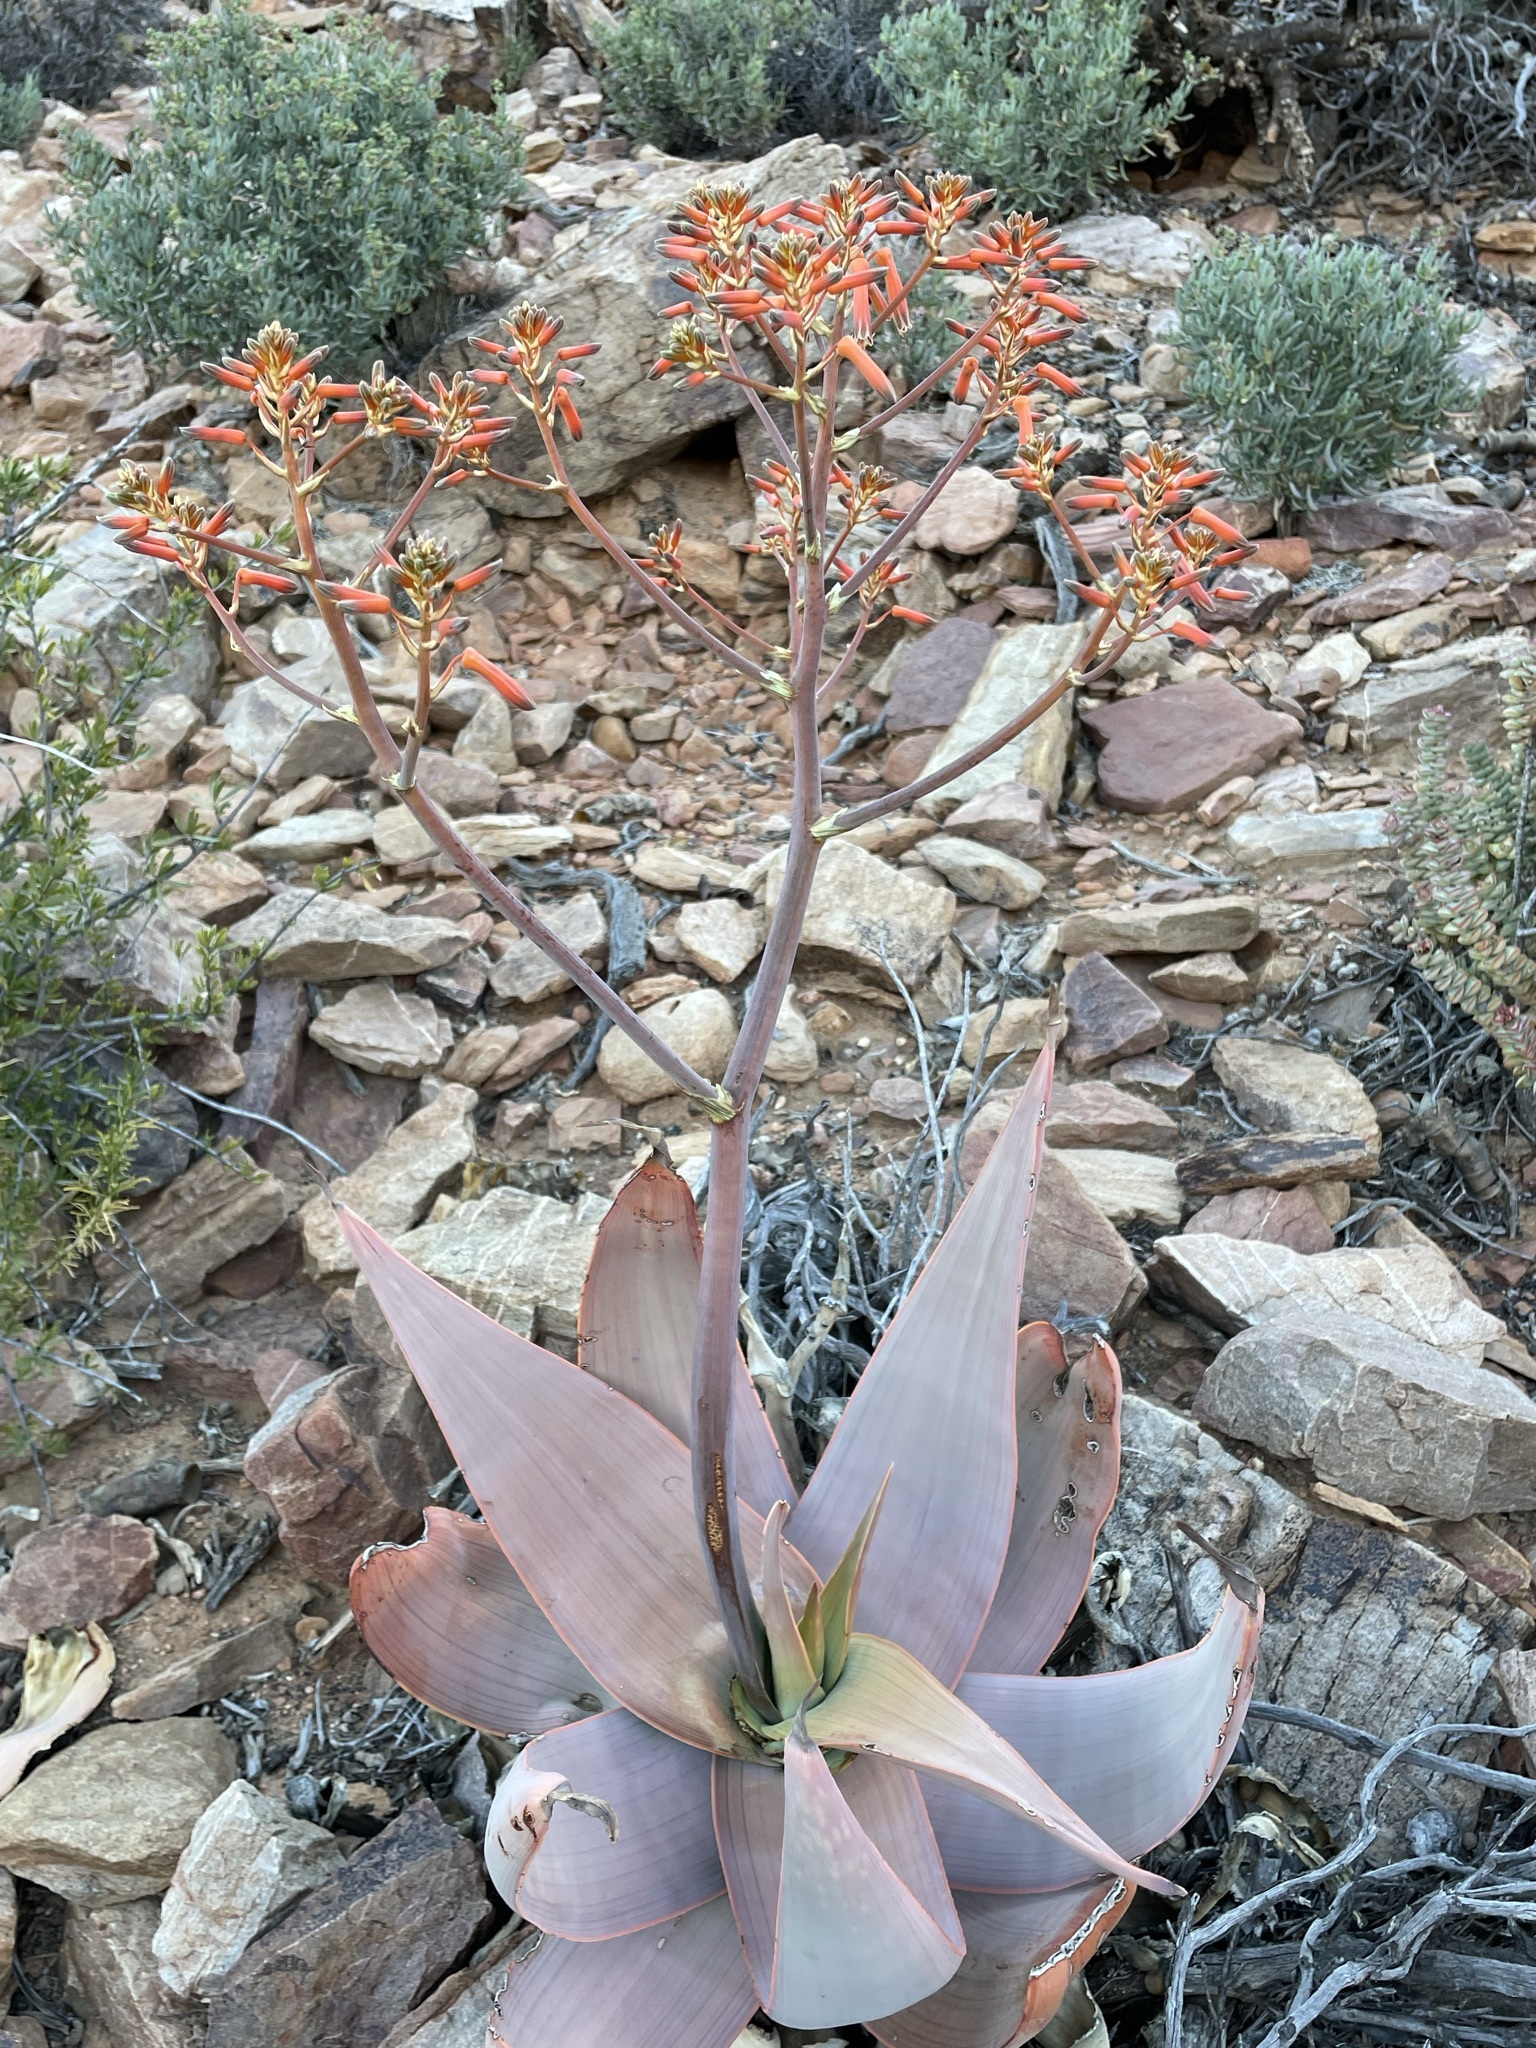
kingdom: Plantae
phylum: Tracheophyta
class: Liliopsida
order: Asparagales
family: Asphodelaceae
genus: Aloe
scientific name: Aloe striata
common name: Coral aloe
